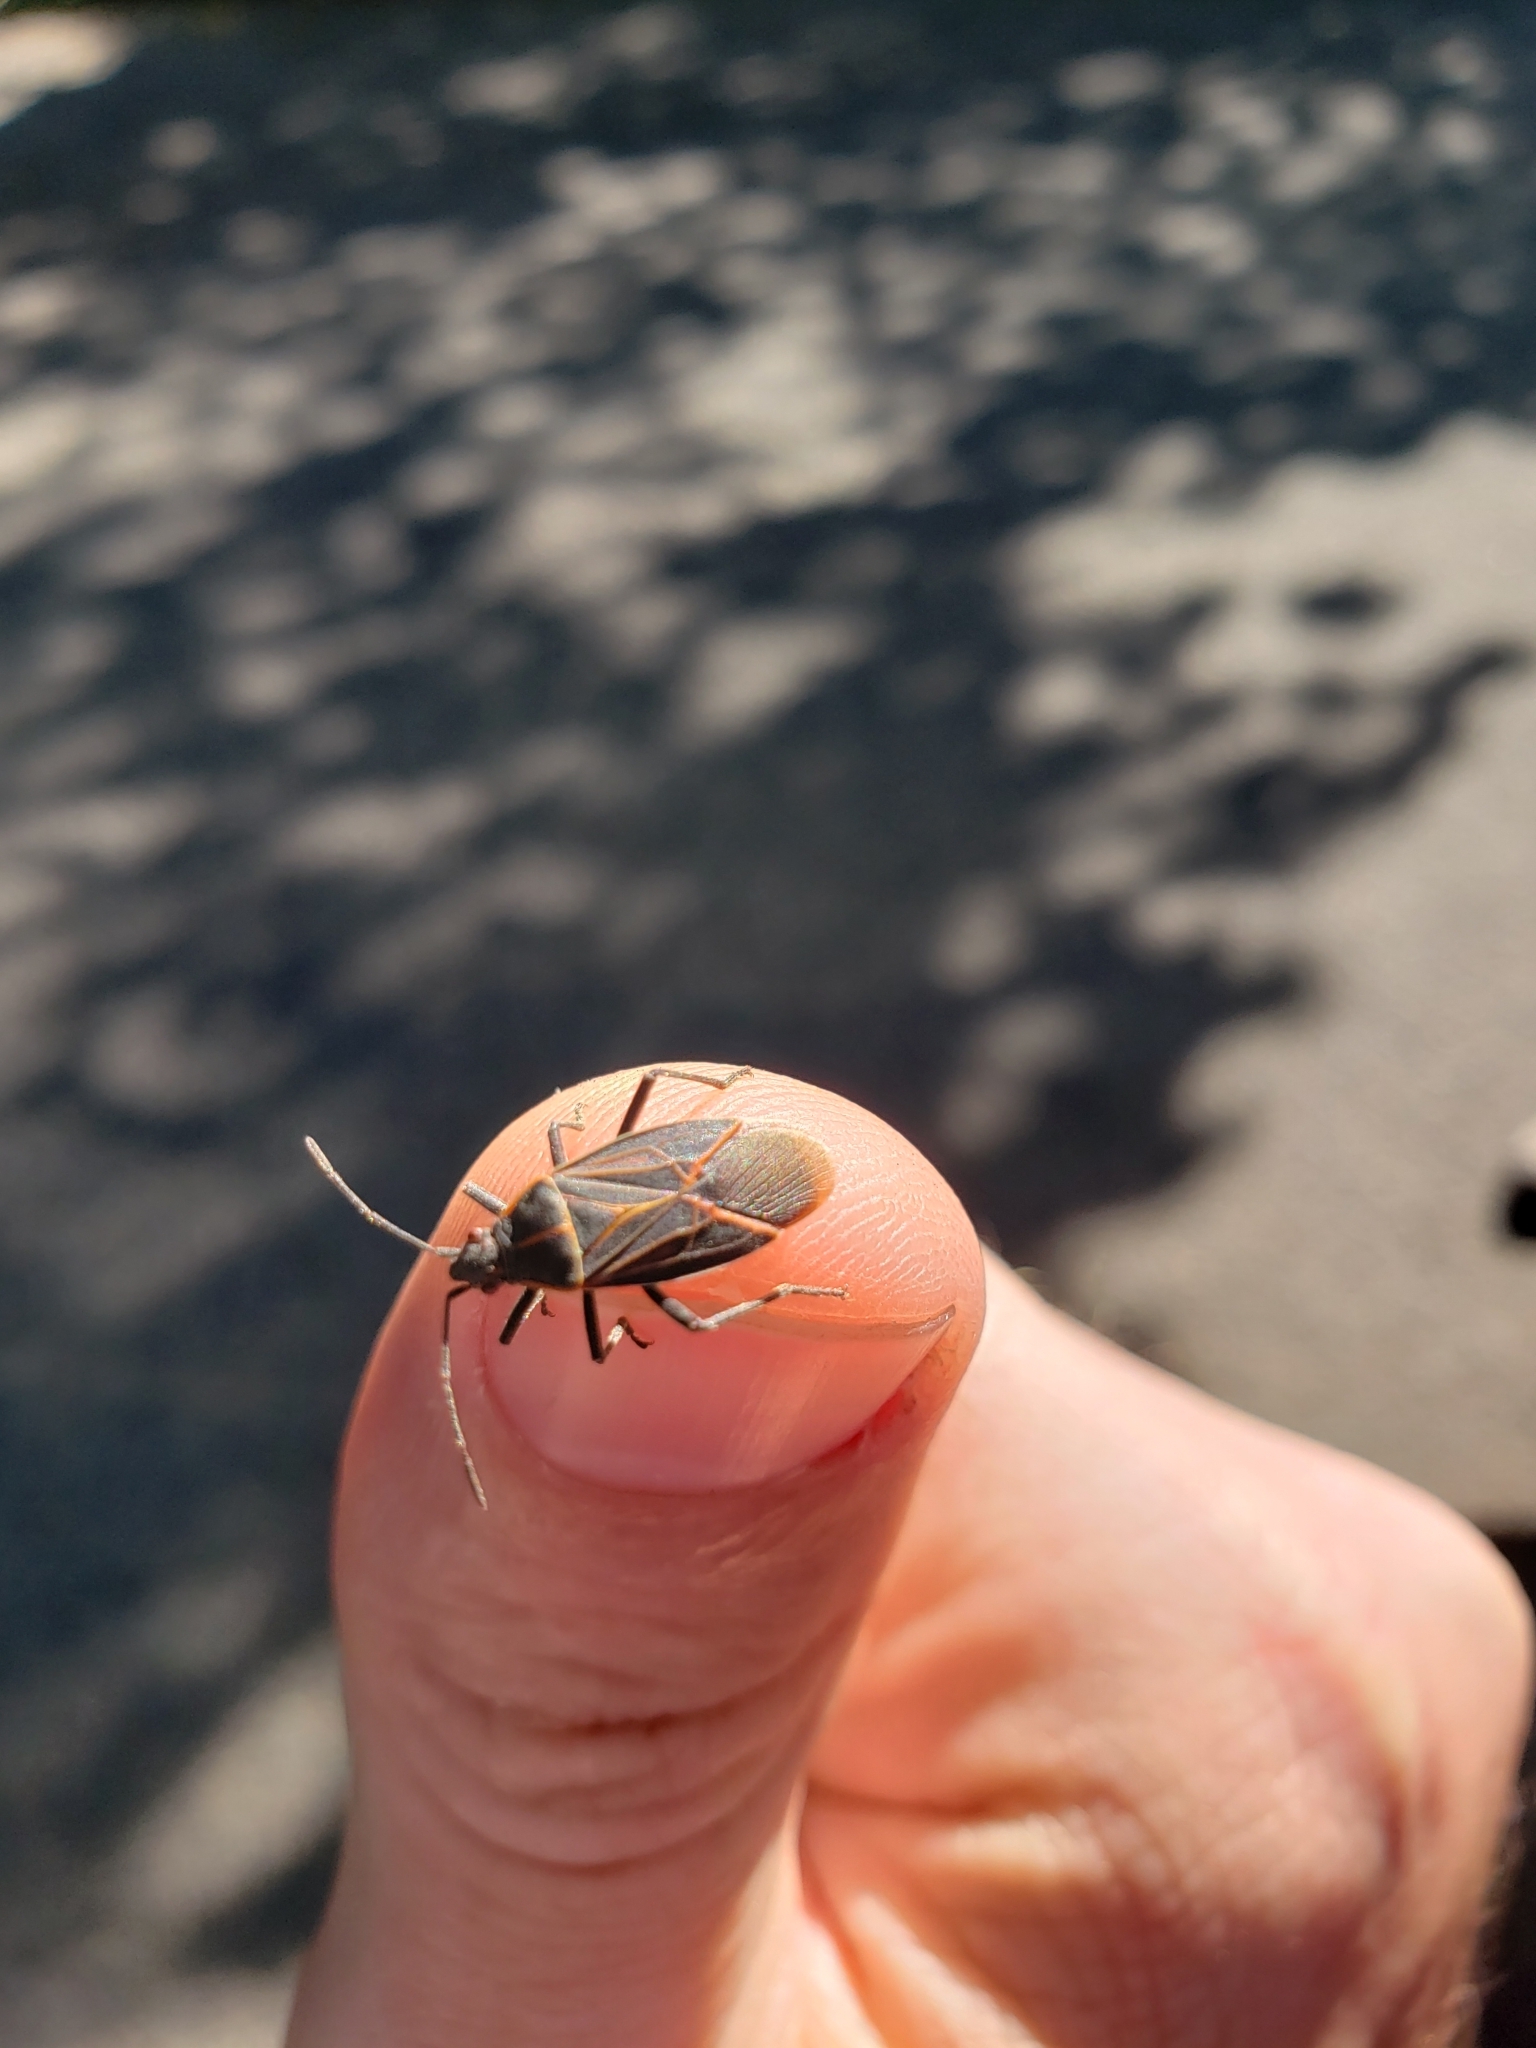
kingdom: Animalia
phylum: Arthropoda
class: Insecta
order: Hemiptera
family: Rhopalidae
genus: Boisea
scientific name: Boisea rubrolineata
